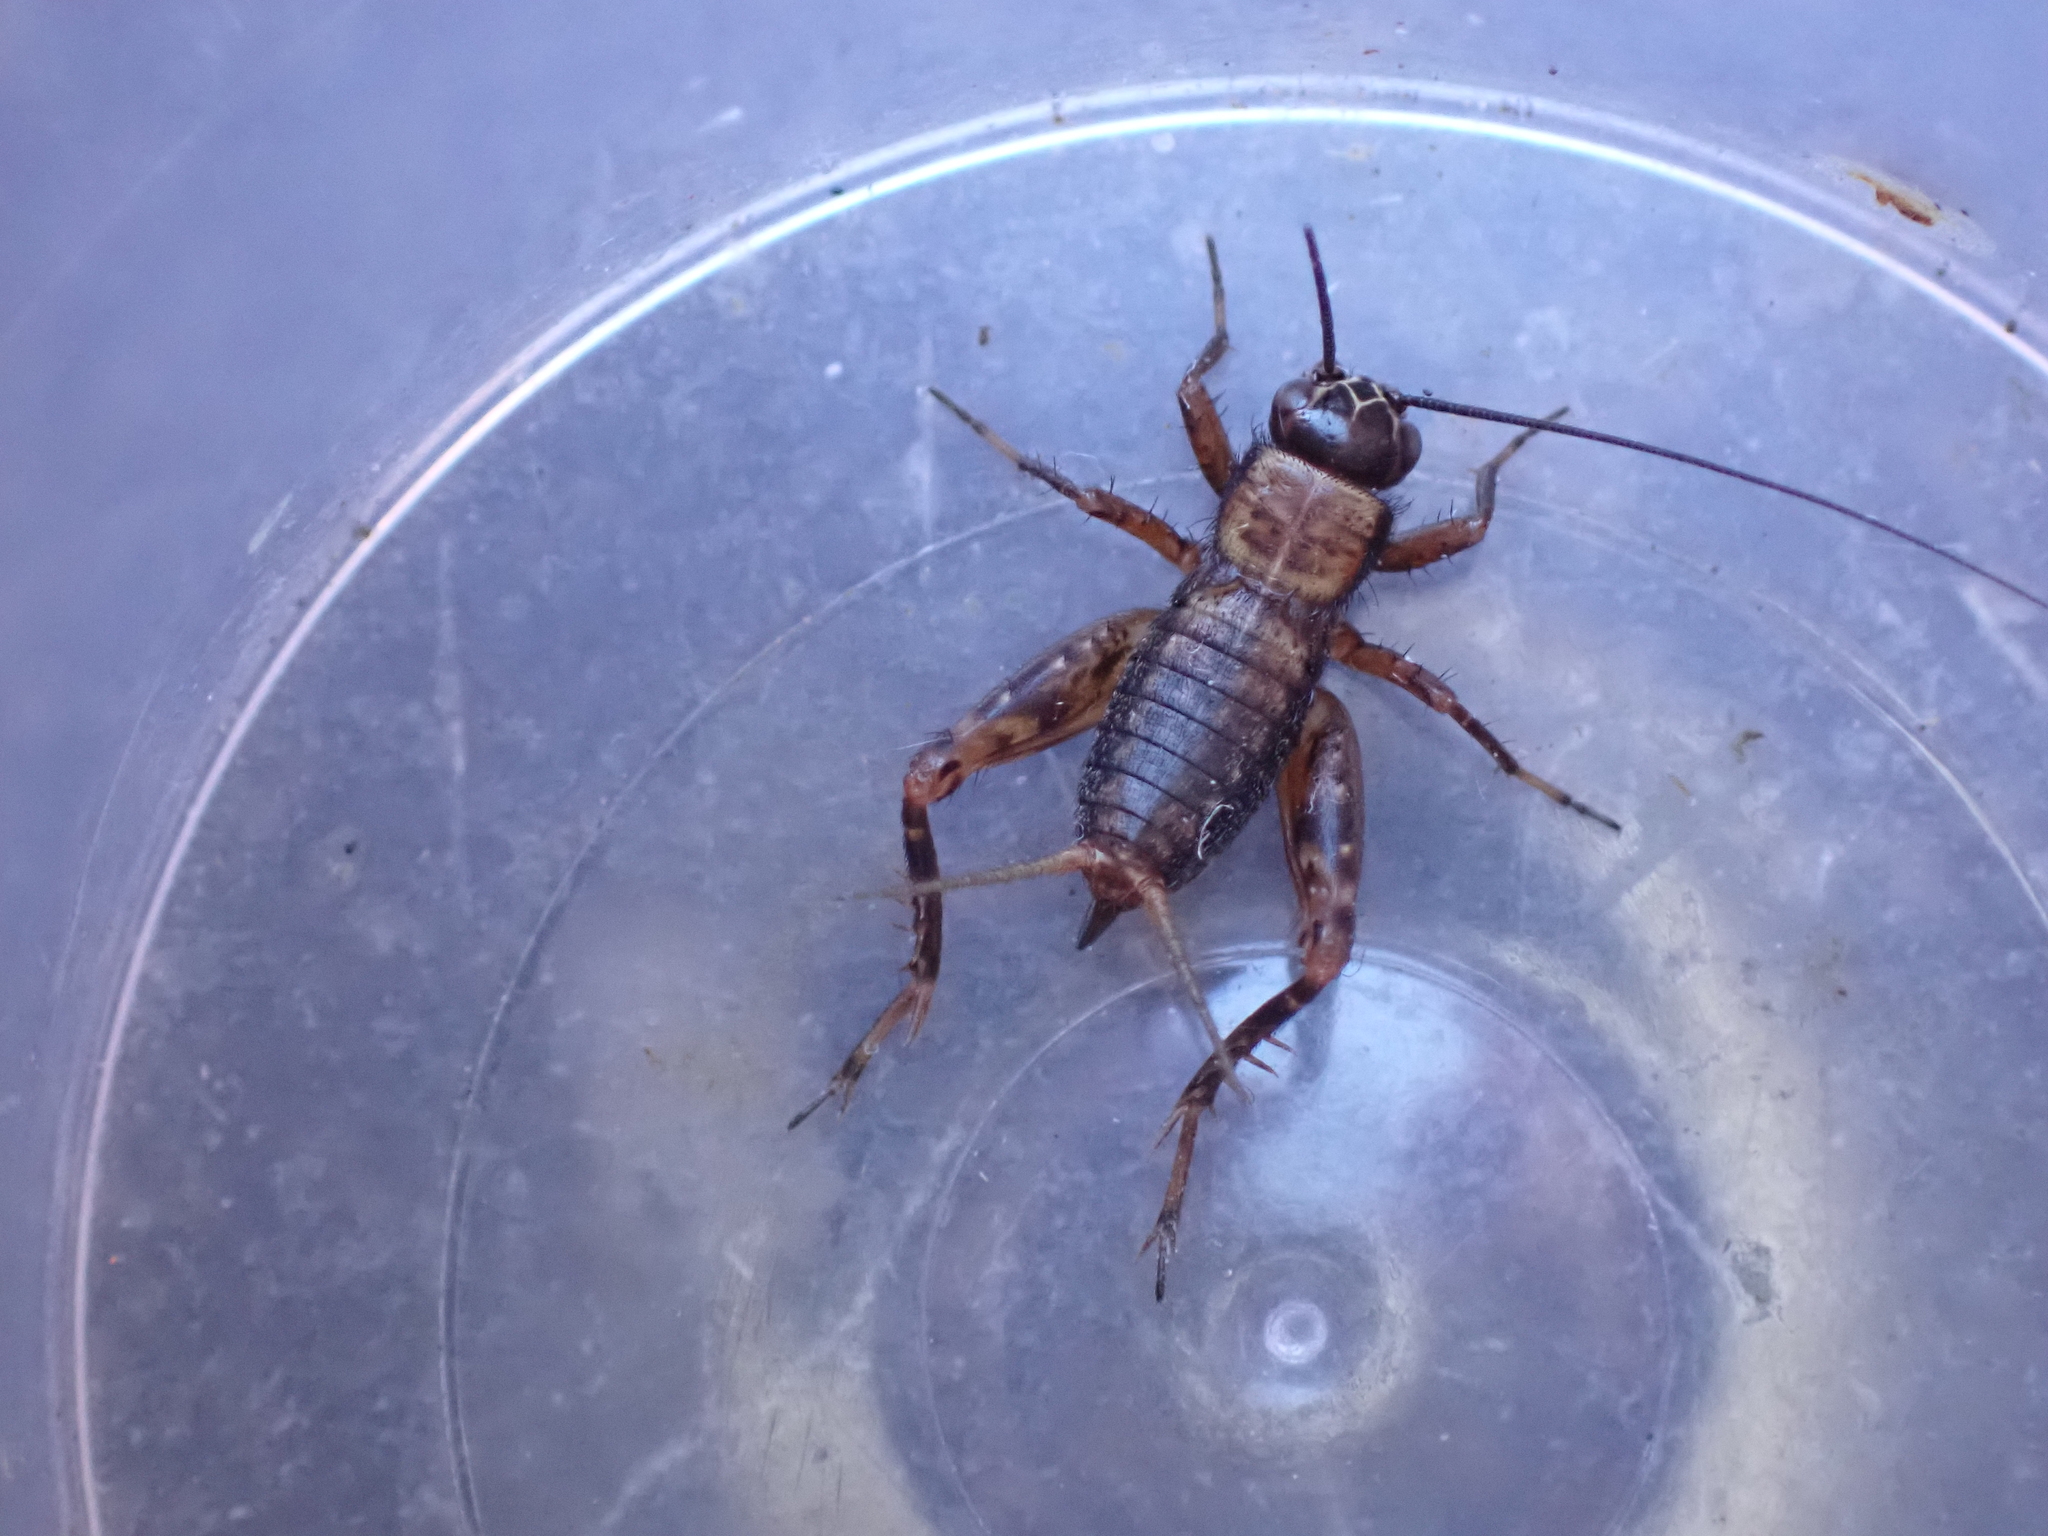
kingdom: Animalia
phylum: Arthropoda
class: Insecta
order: Orthoptera
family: Trigonidiidae
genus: Nemobius
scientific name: Nemobius sylvestris
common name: Wood-cricket
